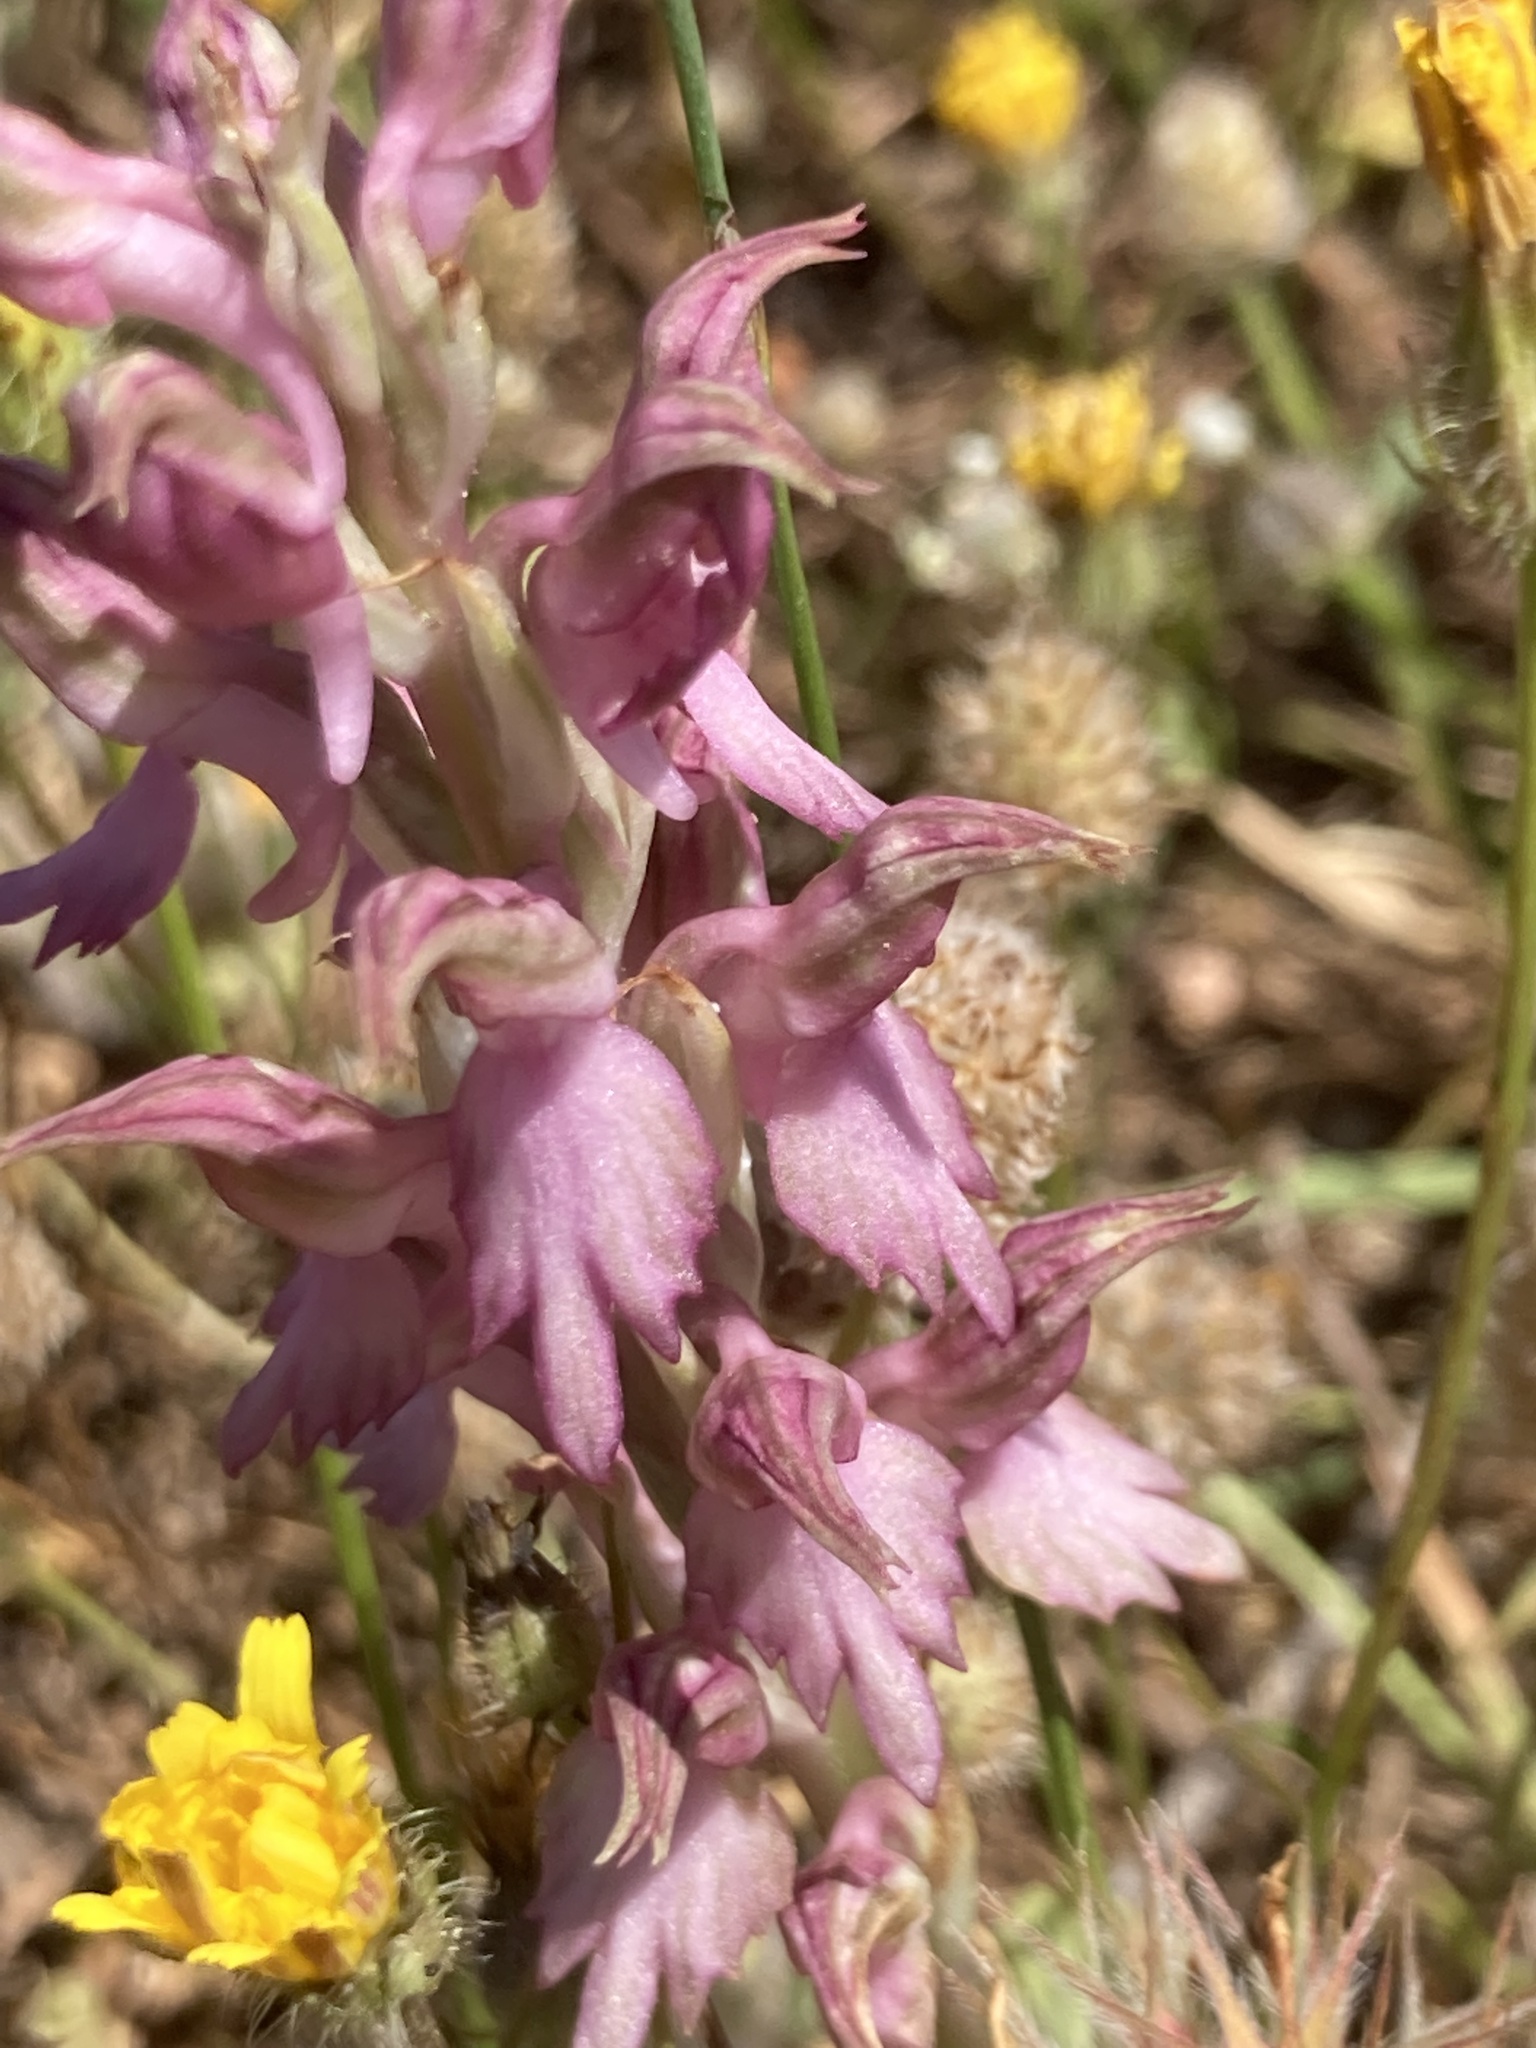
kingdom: Plantae
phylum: Tracheophyta
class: Liliopsida
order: Asparagales
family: Orchidaceae
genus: Anacamptis
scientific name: Anacamptis sancta
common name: Holy orchid
